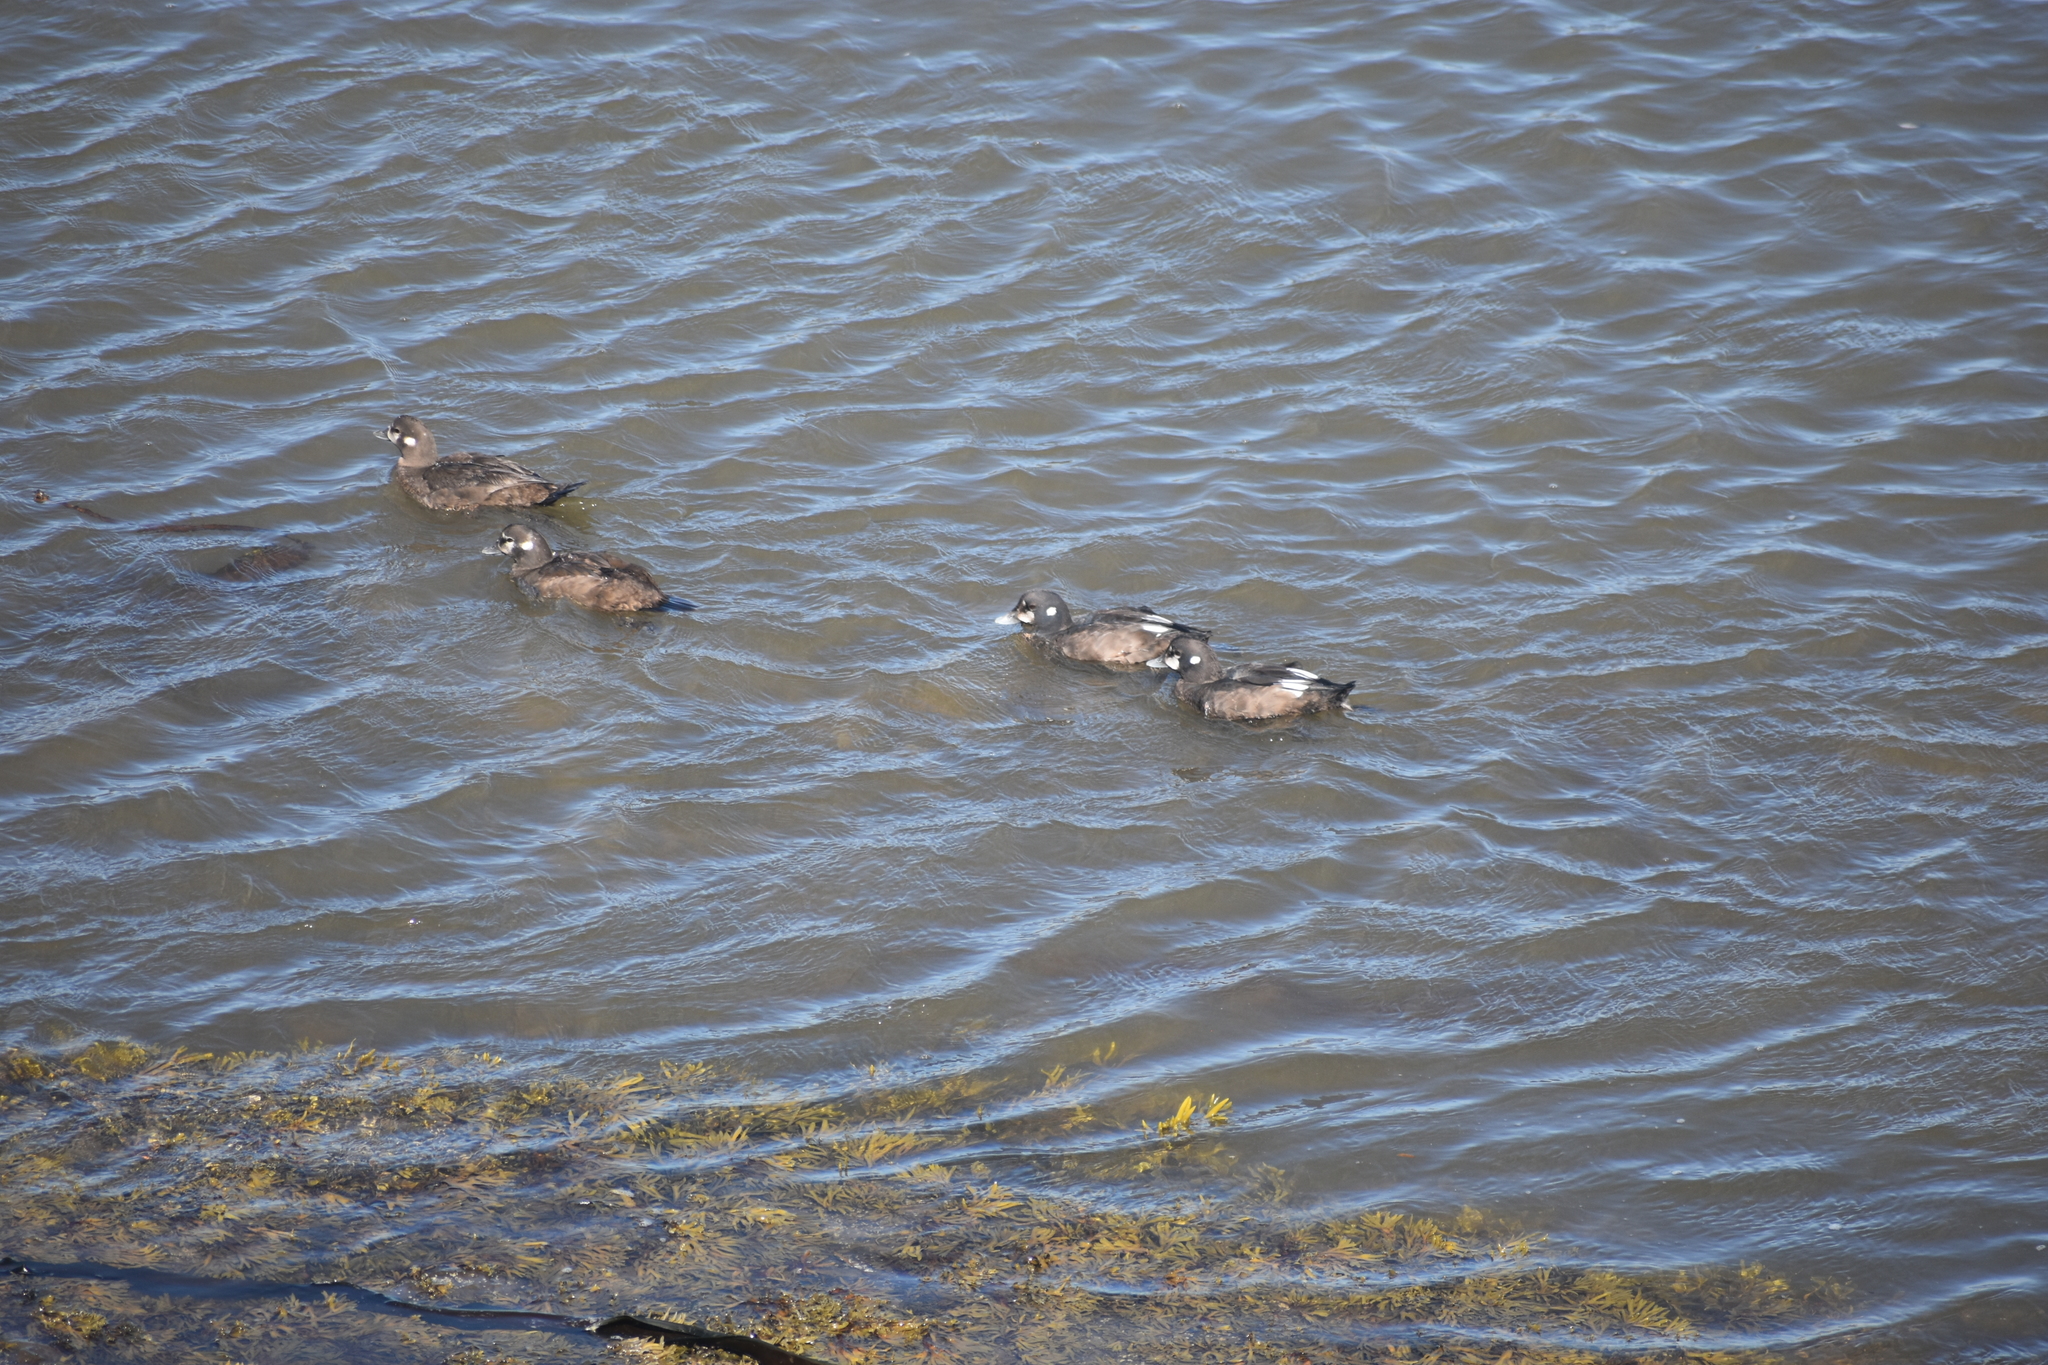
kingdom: Animalia
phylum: Chordata
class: Aves
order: Anseriformes
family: Anatidae
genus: Histrionicus
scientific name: Histrionicus histrionicus
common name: Harlequin duck
